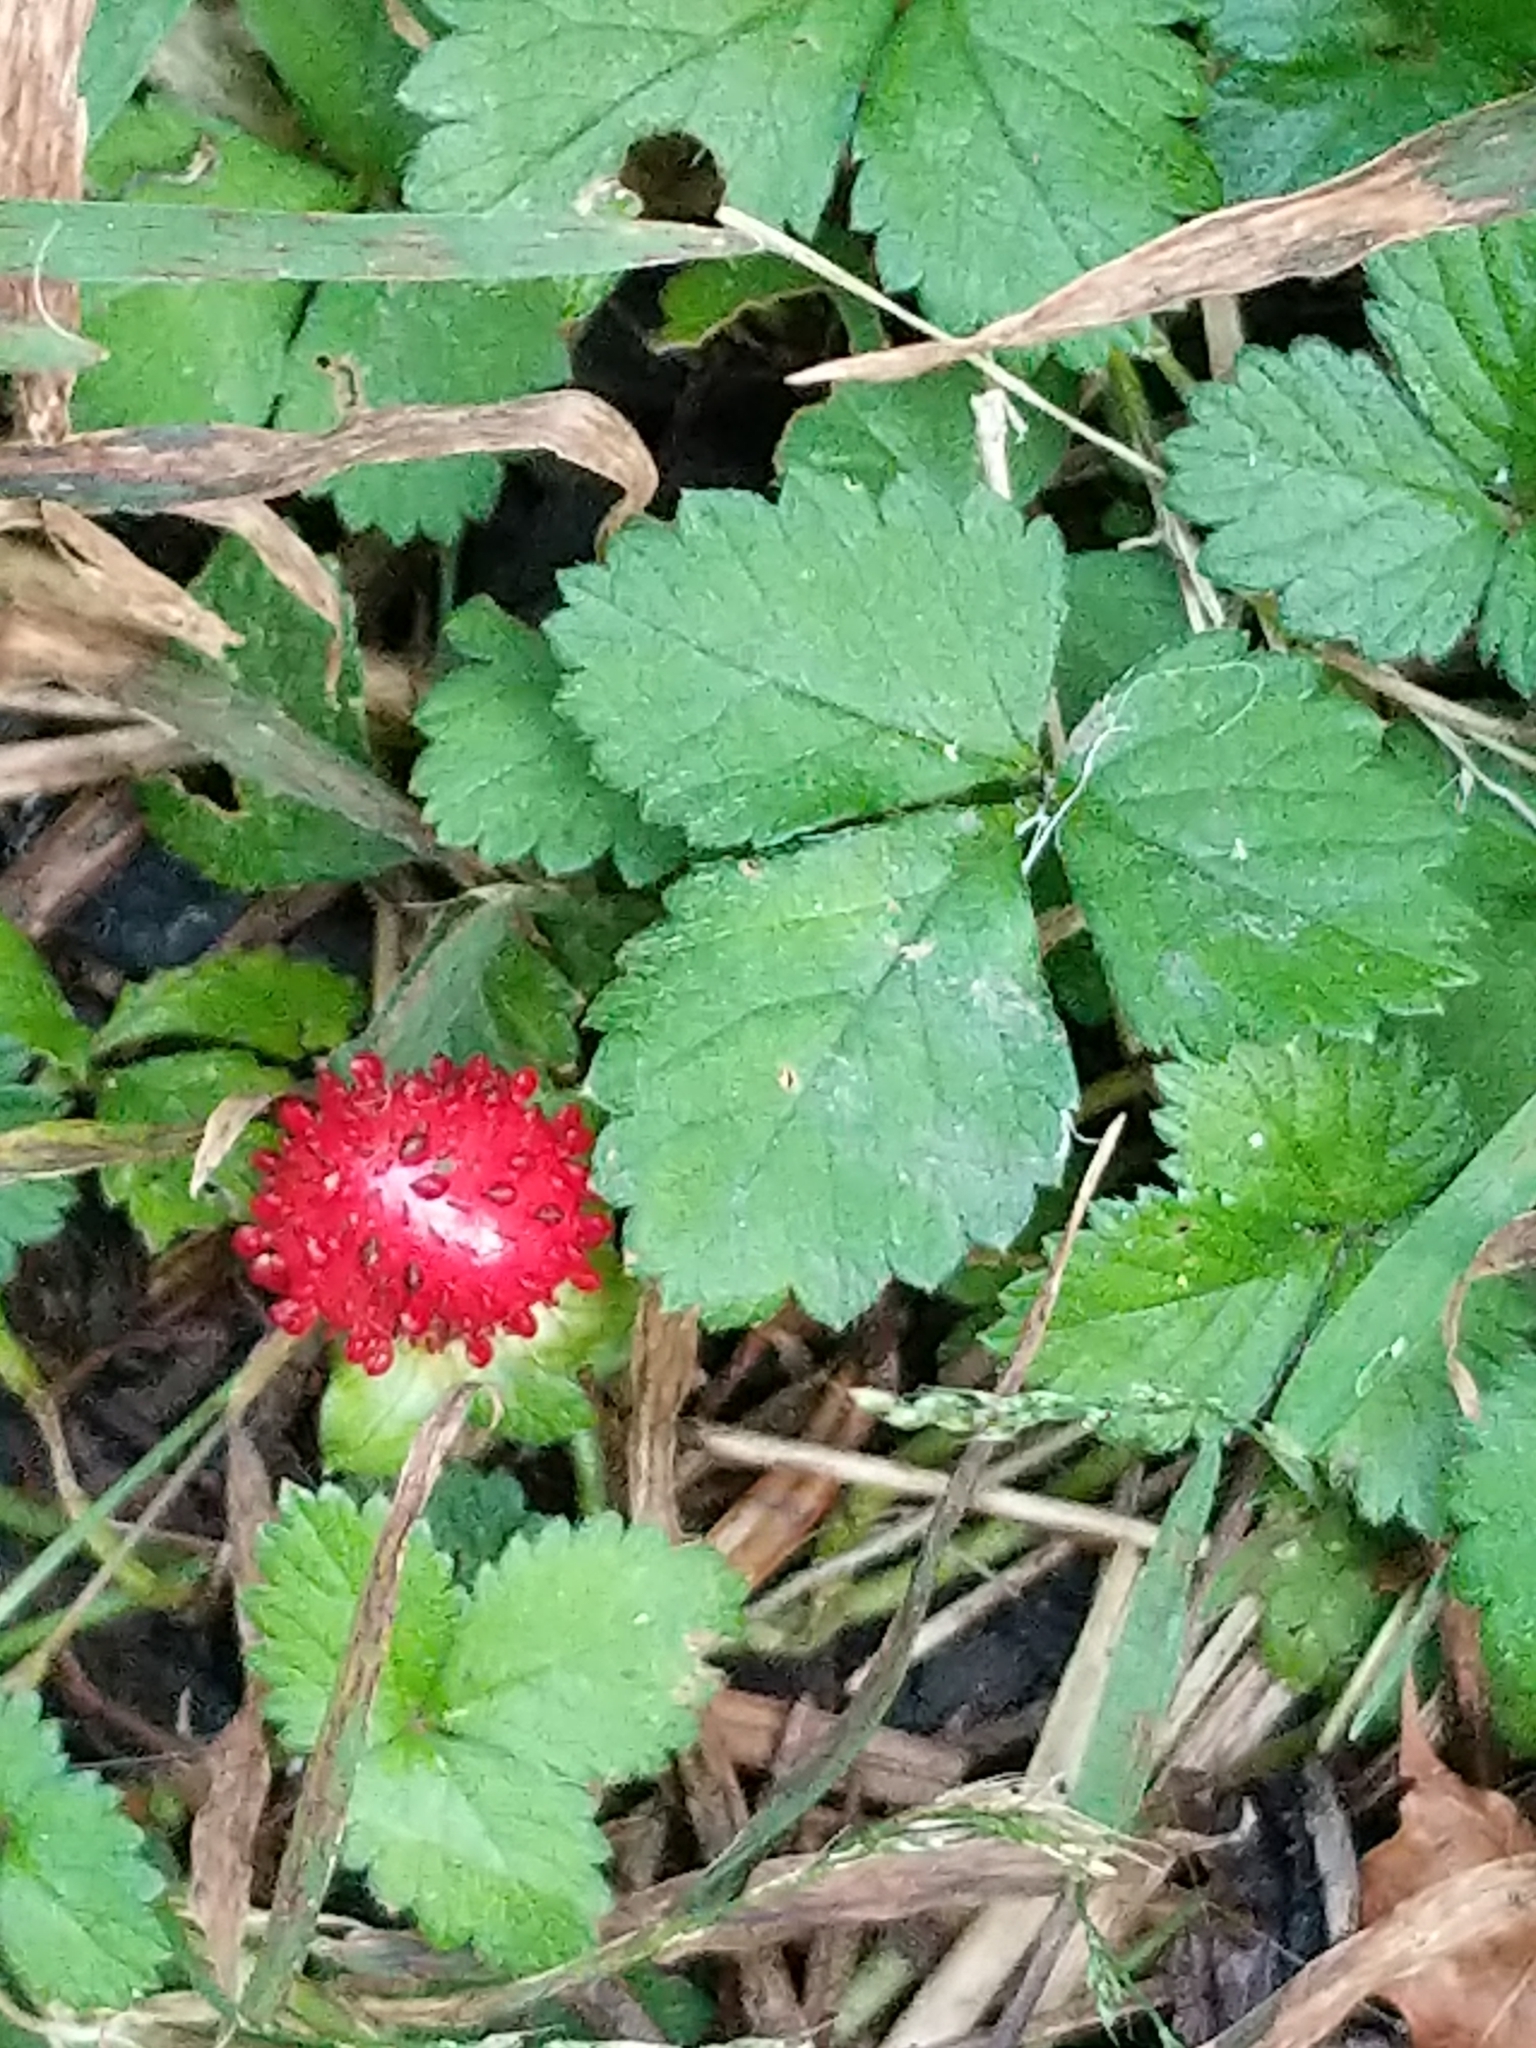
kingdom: Plantae
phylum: Tracheophyta
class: Magnoliopsida
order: Rosales
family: Rosaceae
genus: Potentilla
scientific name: Potentilla indica
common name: Yellow-flowered strawberry
